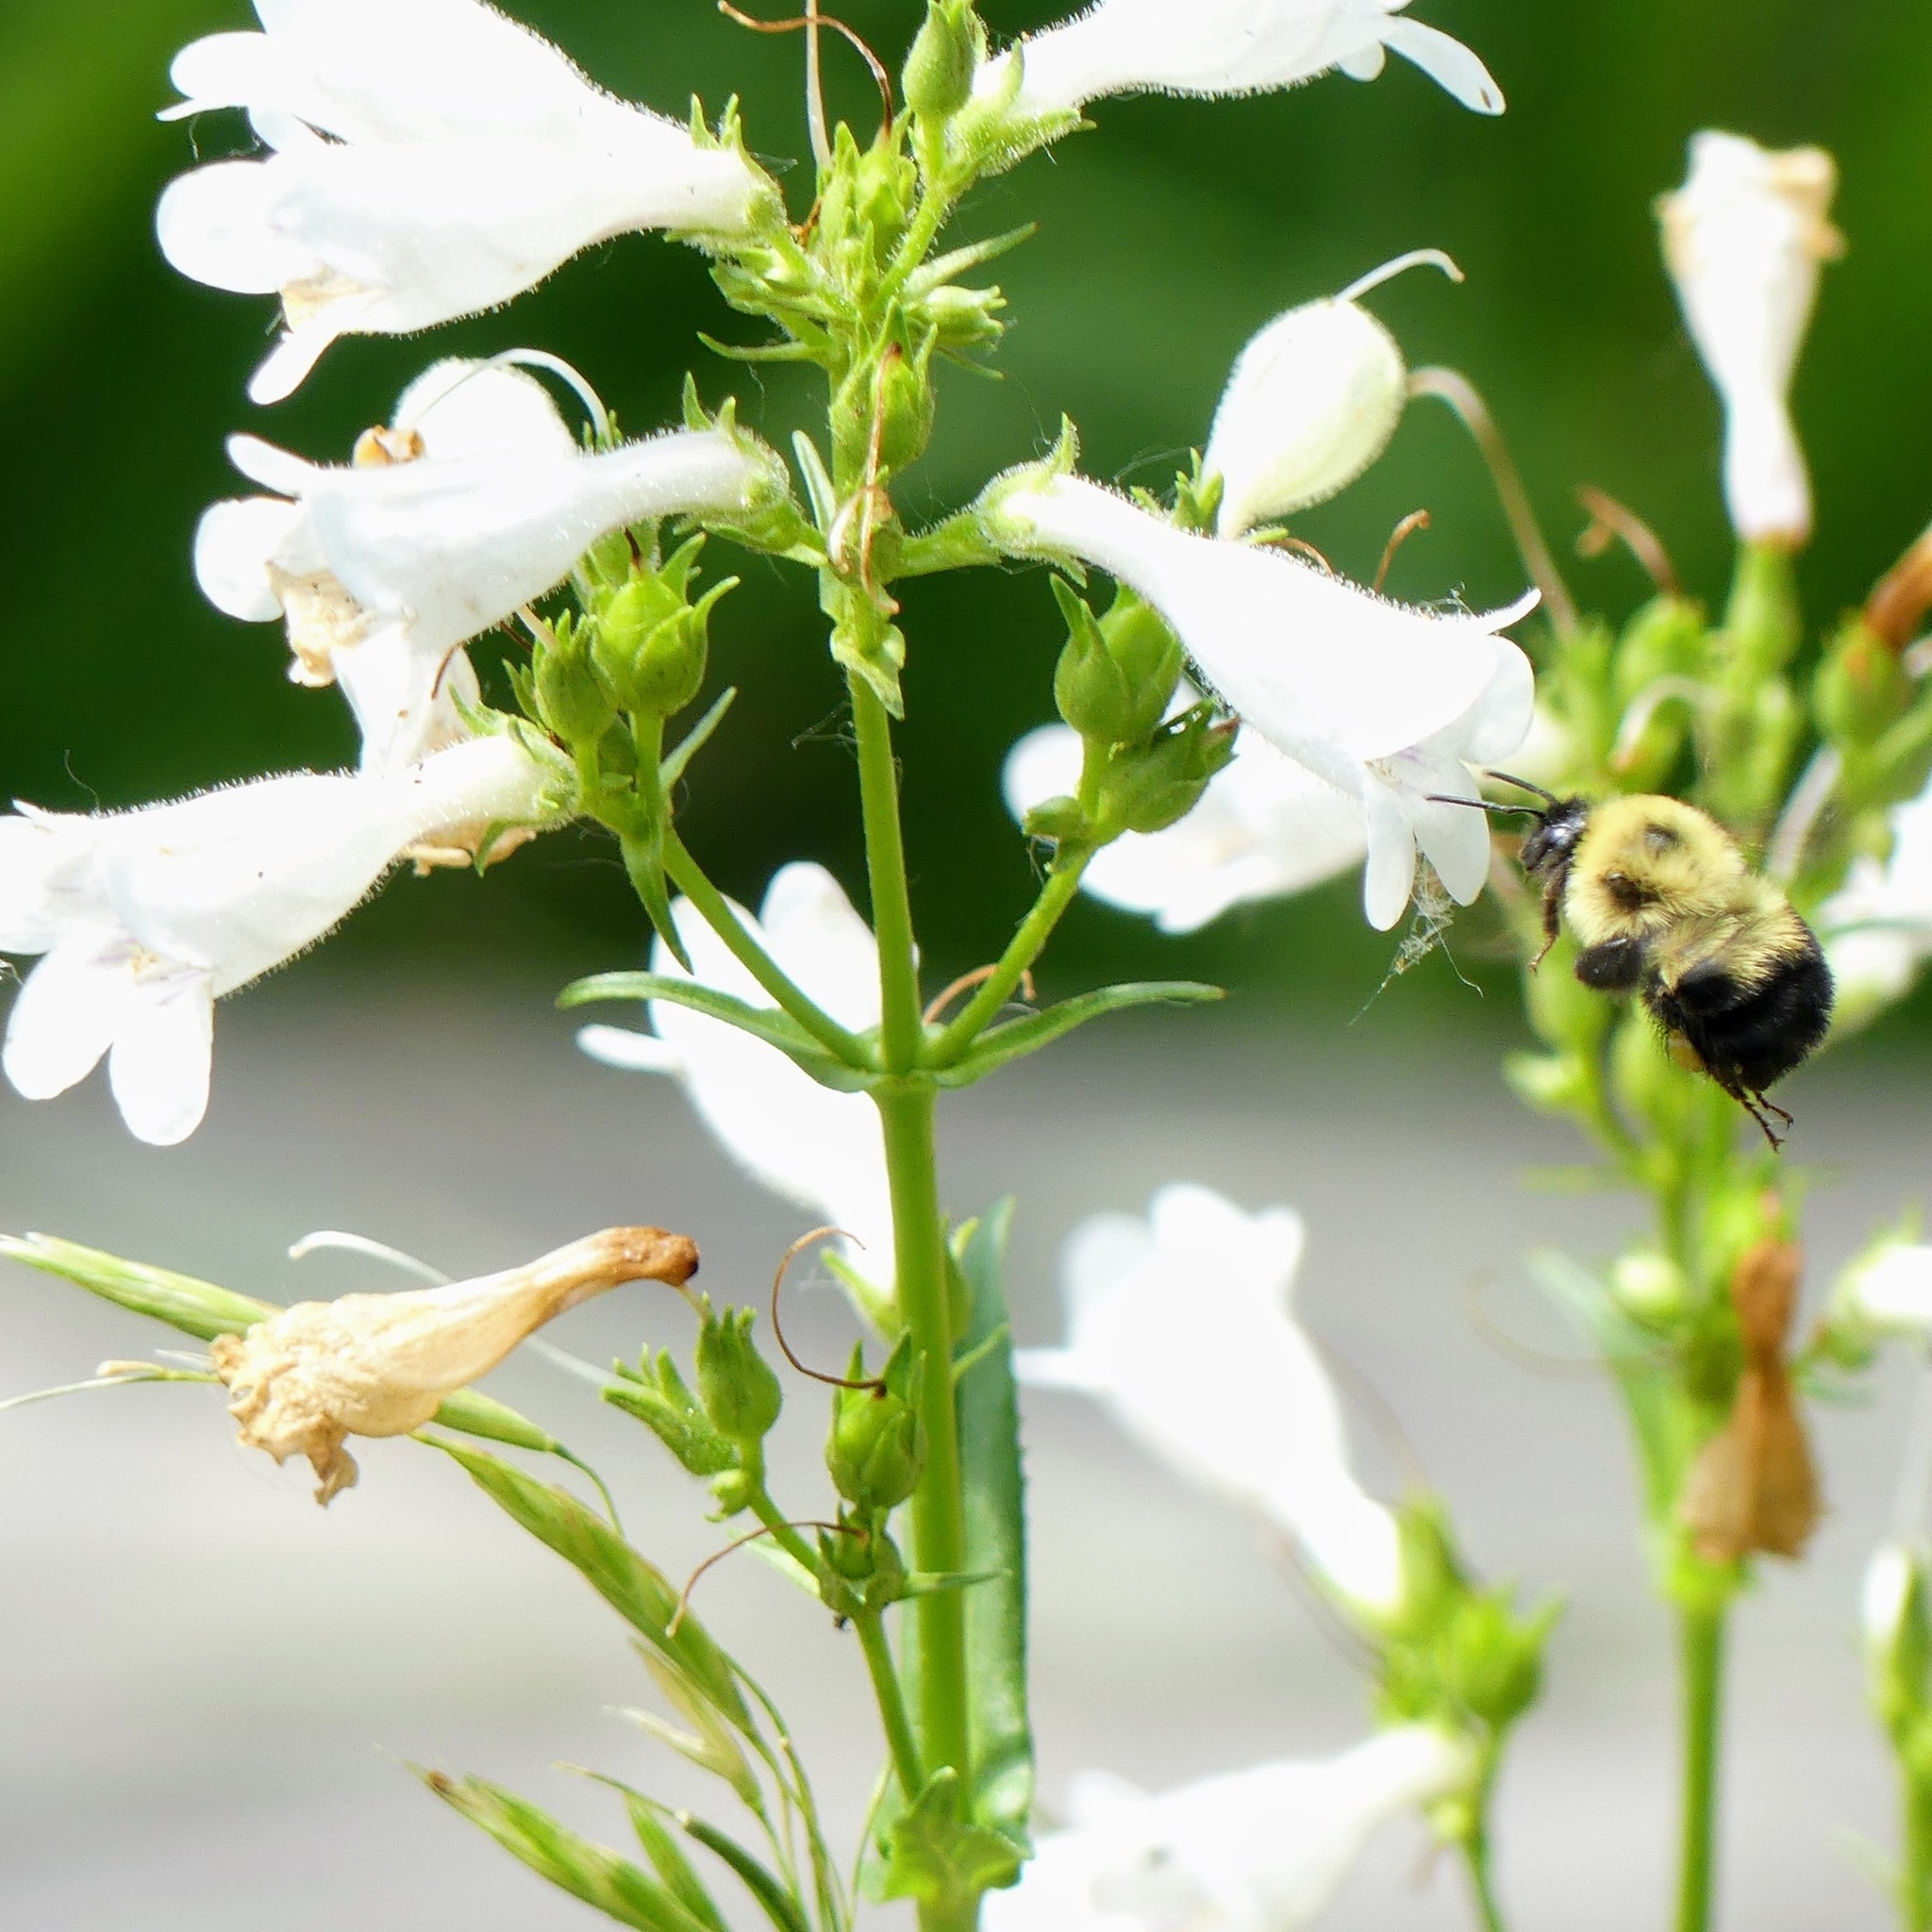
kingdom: Animalia
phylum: Arthropoda
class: Insecta
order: Hymenoptera
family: Apidae
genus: Bombus
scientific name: Bombus bimaculatus
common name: Two-spotted bumble bee
